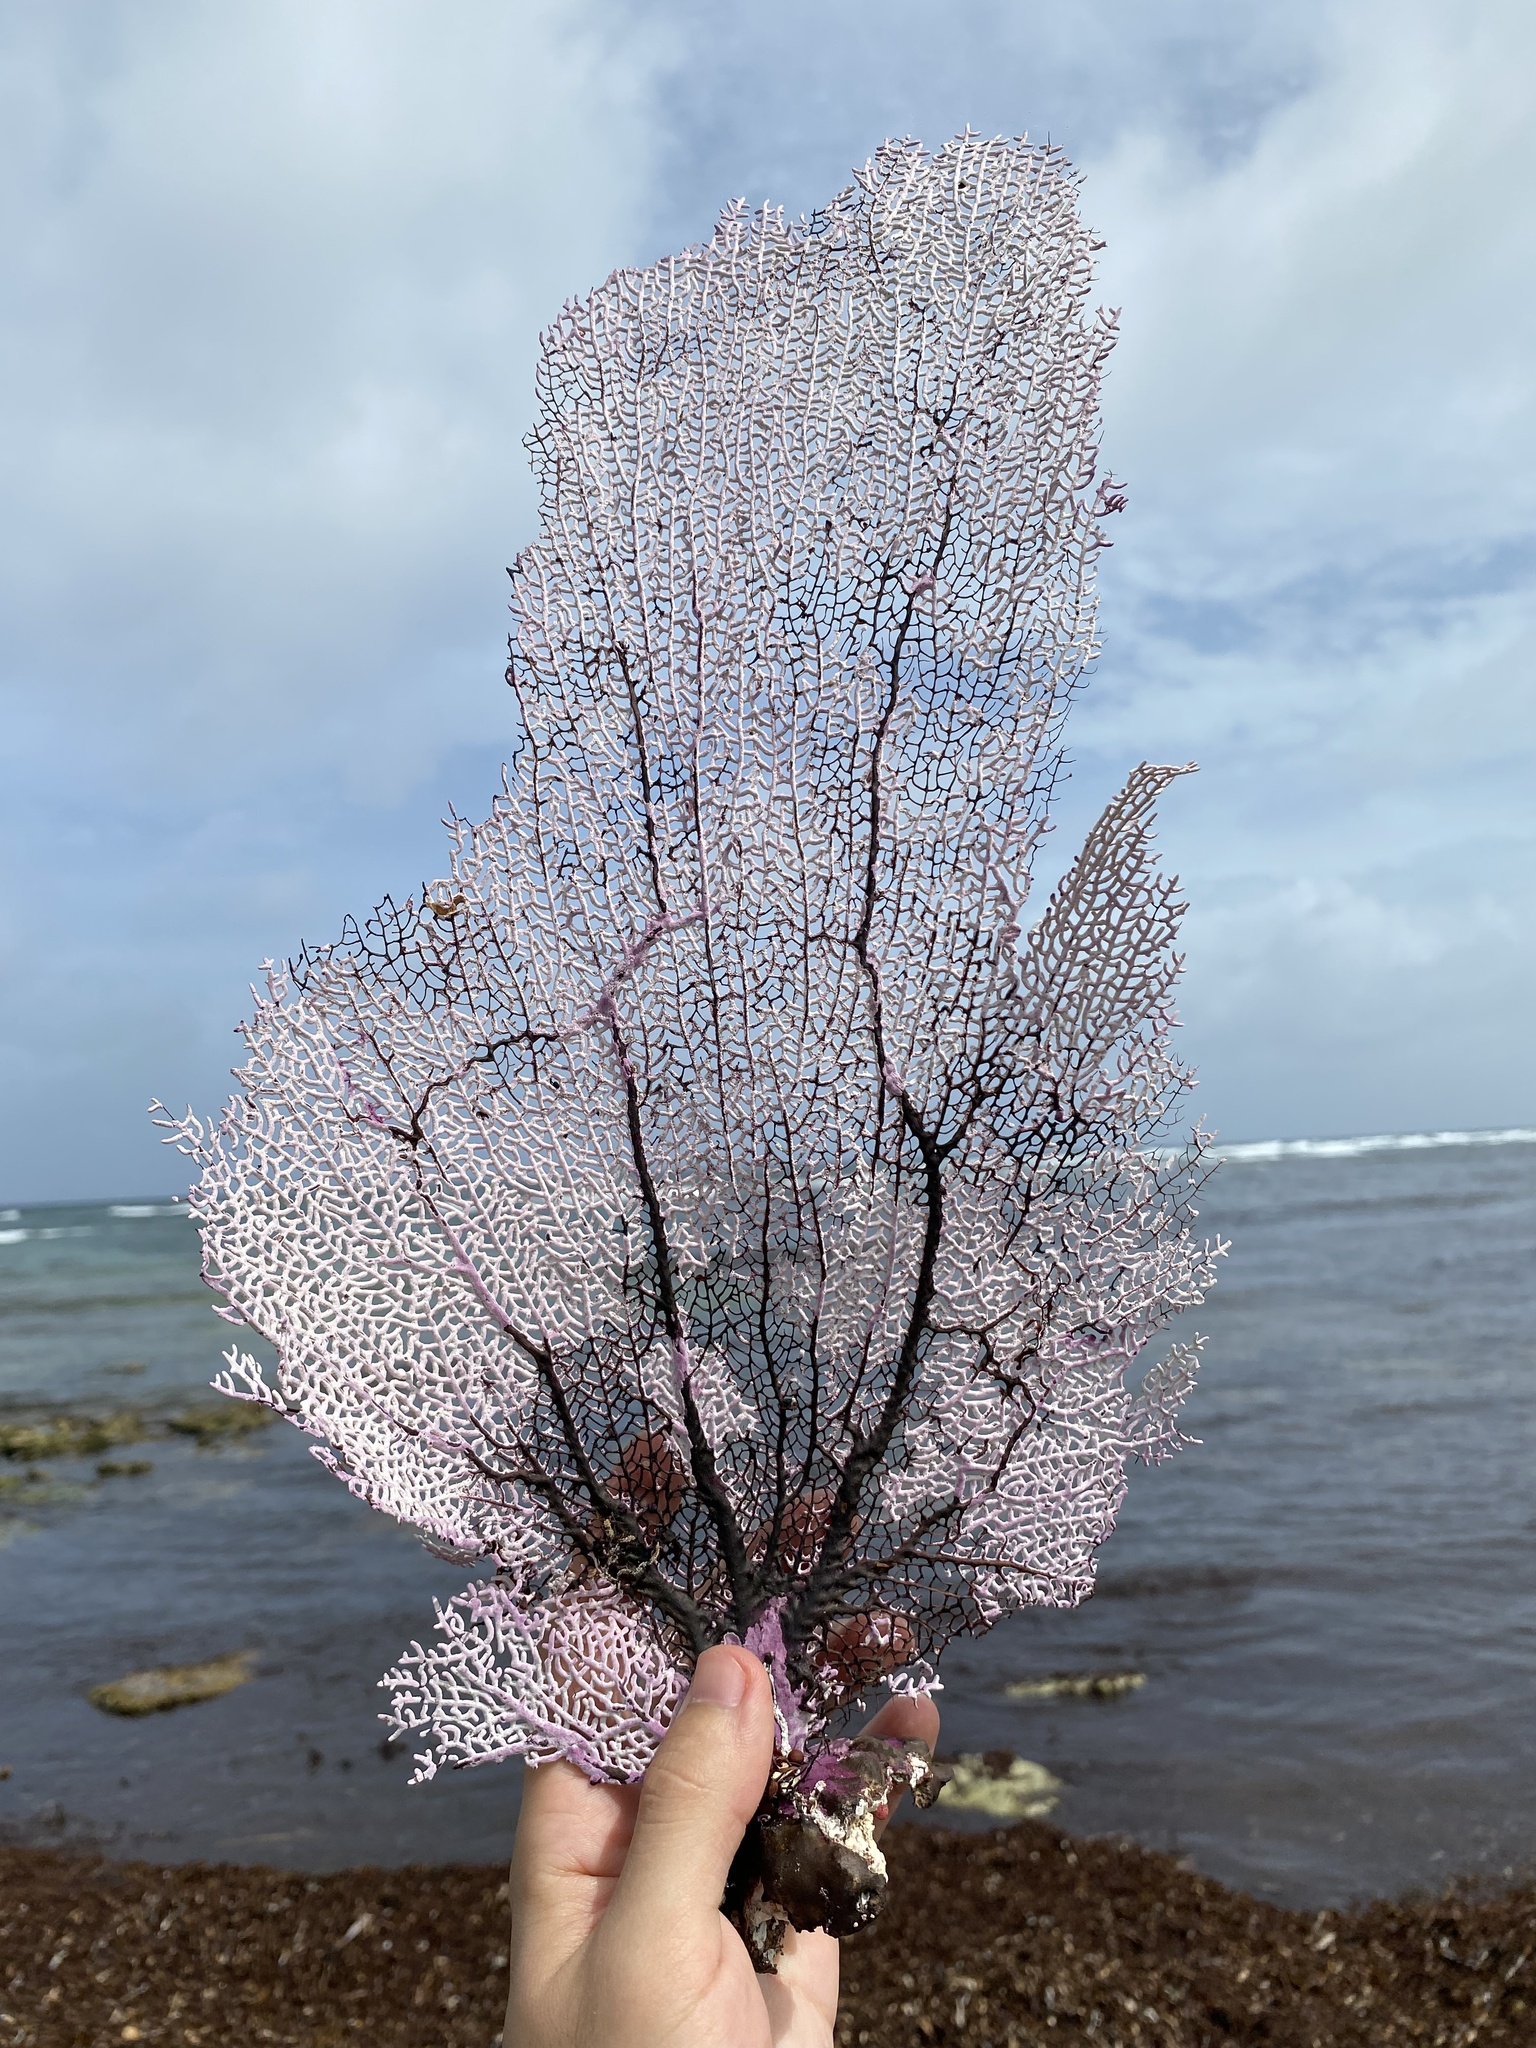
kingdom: Animalia
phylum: Cnidaria
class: Anthozoa
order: Malacalcyonacea
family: Gorgoniidae
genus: Gorgonia
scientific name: Gorgonia ventalina
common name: Common sea fan
